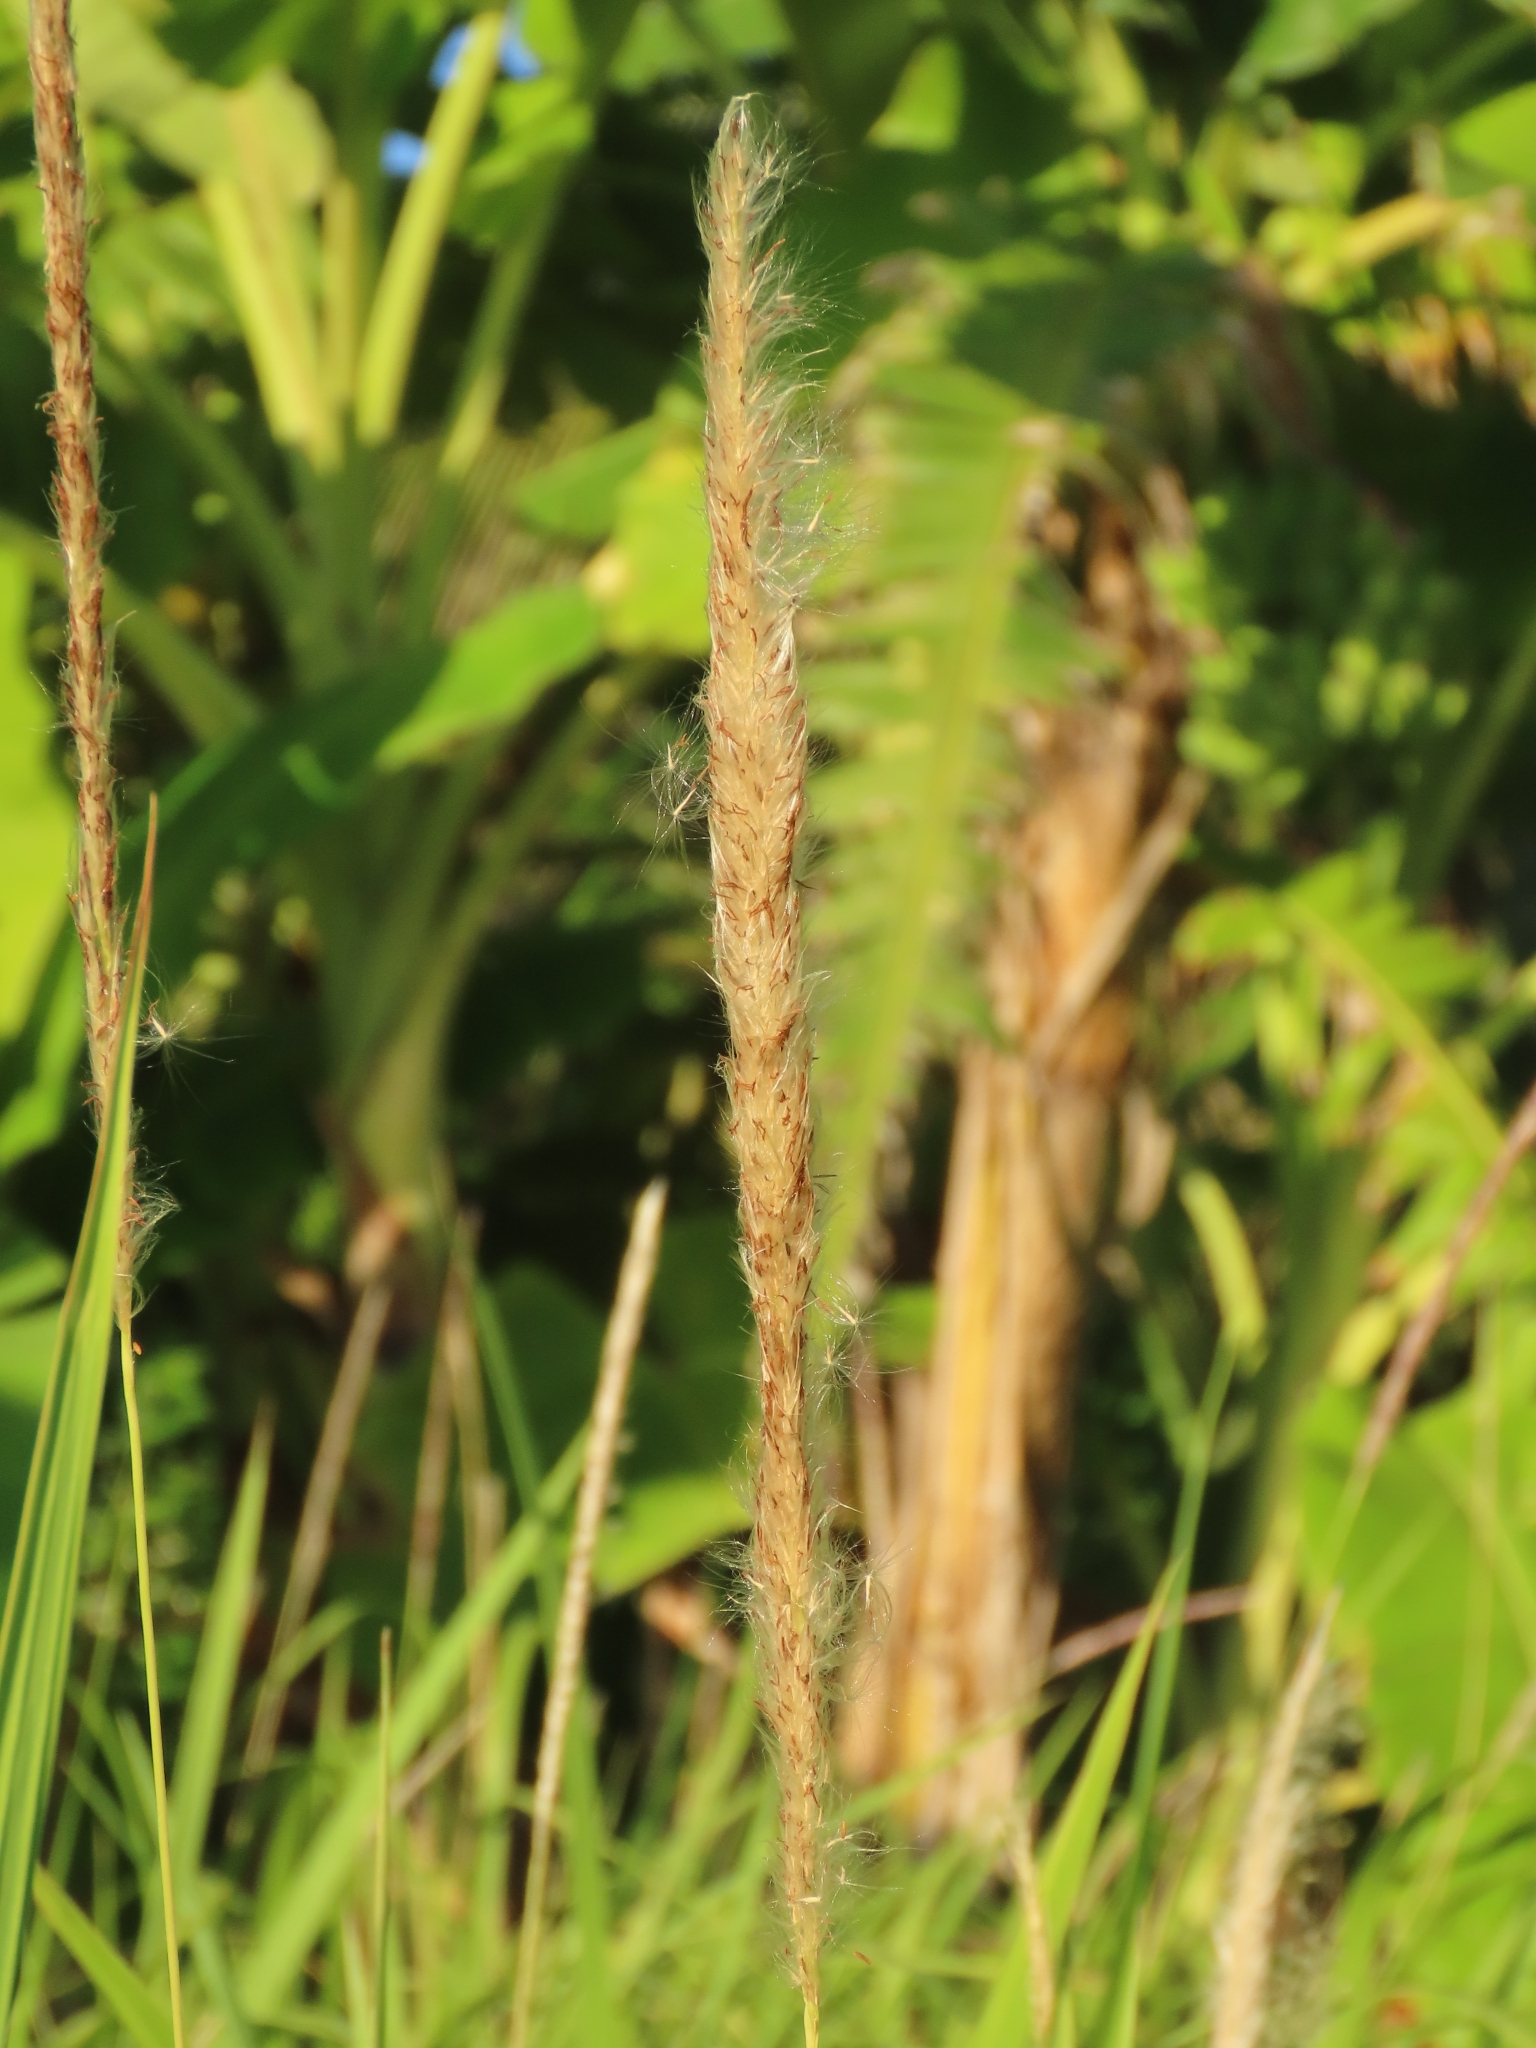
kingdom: Plantae
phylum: Tracheophyta
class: Liliopsida
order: Poales
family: Poaceae
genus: Imperata
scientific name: Imperata cylindrica
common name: Cogongrass
